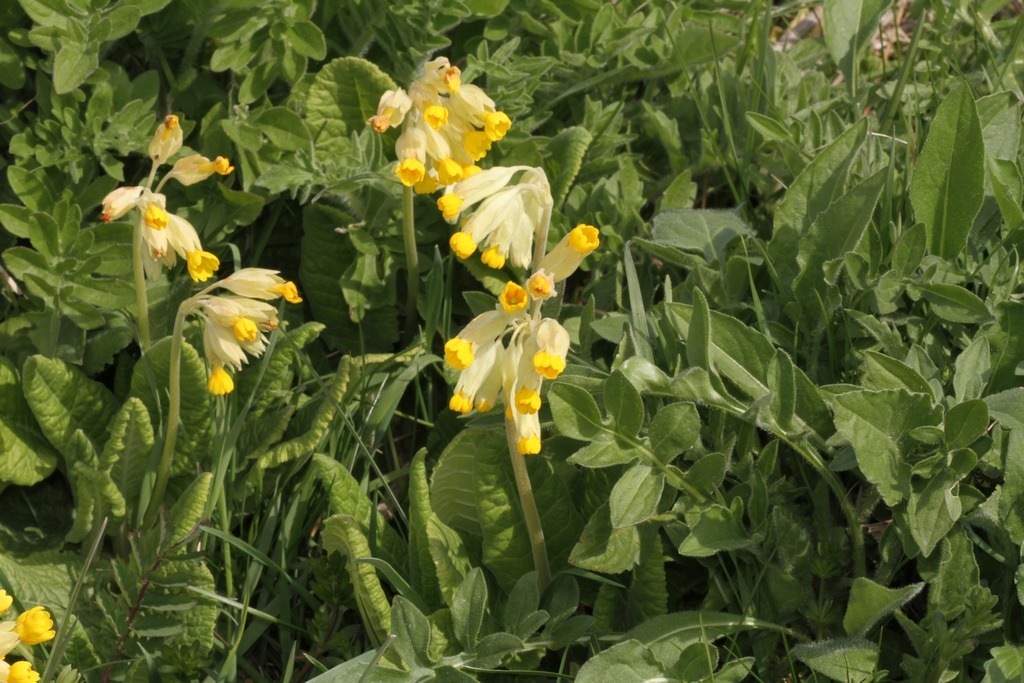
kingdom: Plantae
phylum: Tracheophyta
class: Magnoliopsida
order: Ericales
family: Primulaceae
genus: Primula
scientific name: Primula veris
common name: Cowslip
